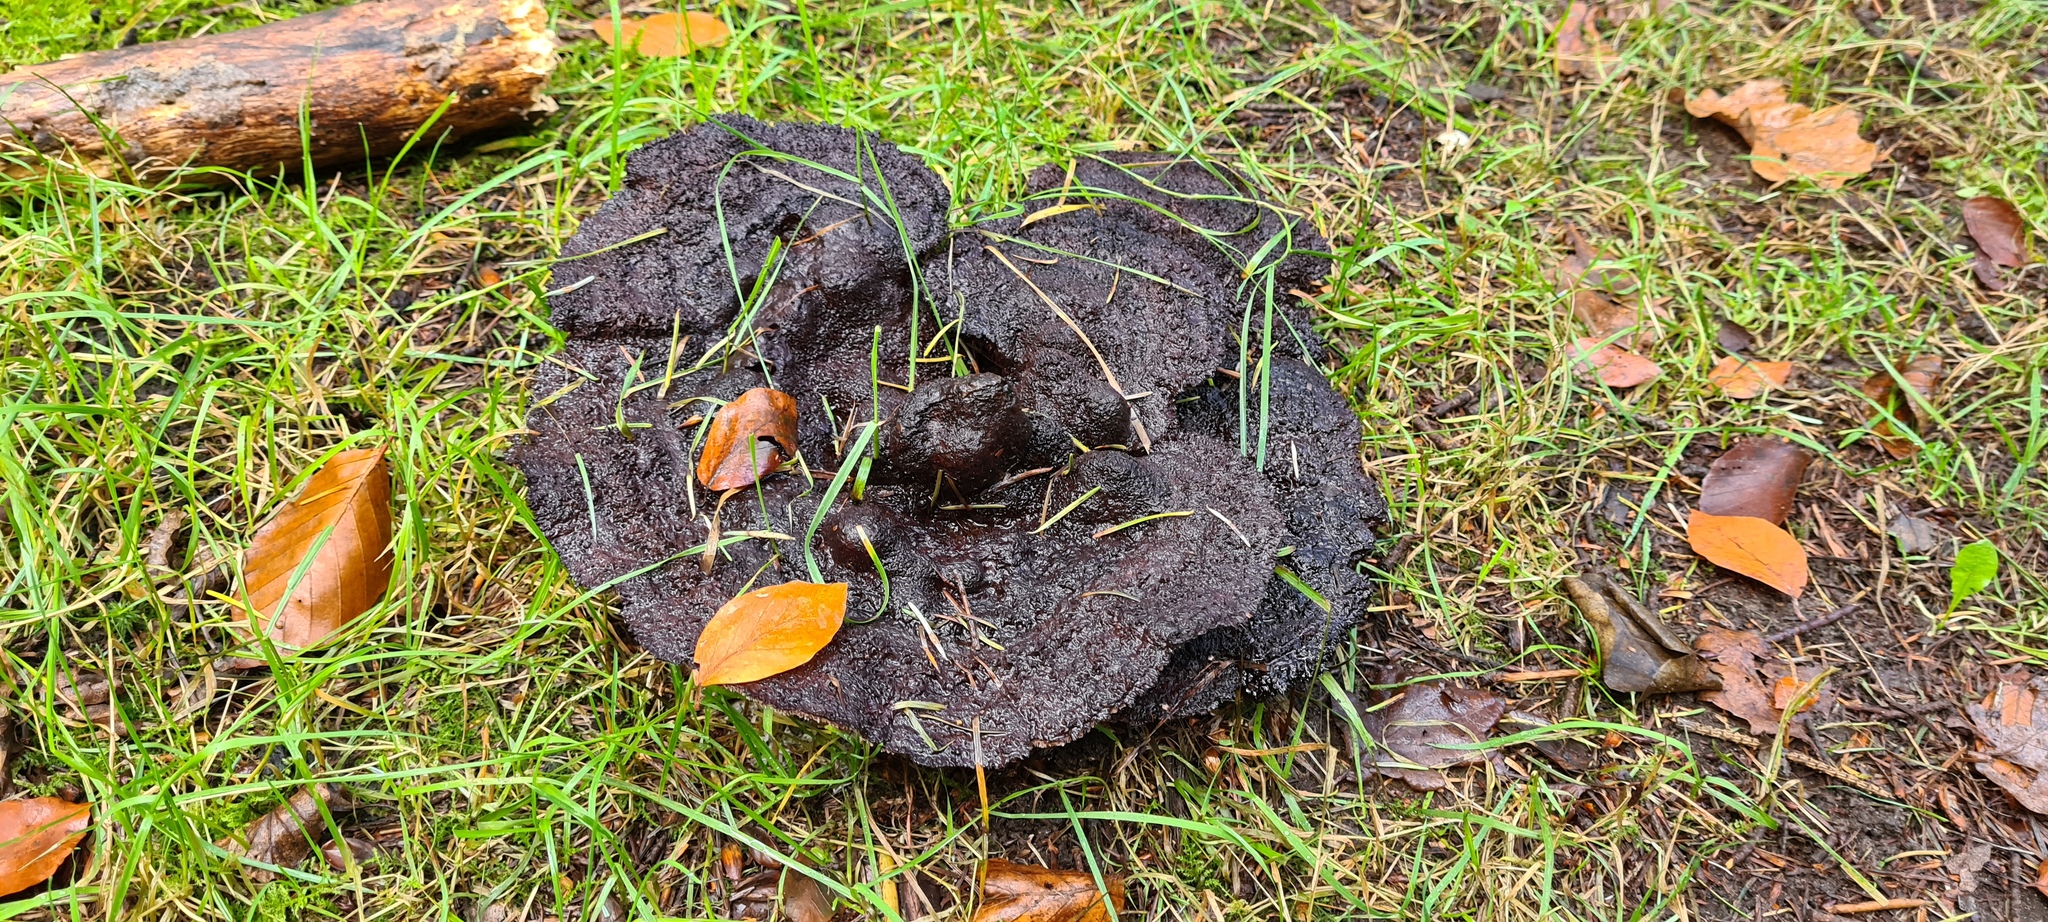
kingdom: Fungi
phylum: Basidiomycota
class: Agaricomycetes
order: Polyporales
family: Laetiporaceae
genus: Phaeolus
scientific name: Phaeolus schweinitzii
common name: Dyer's mazegill
